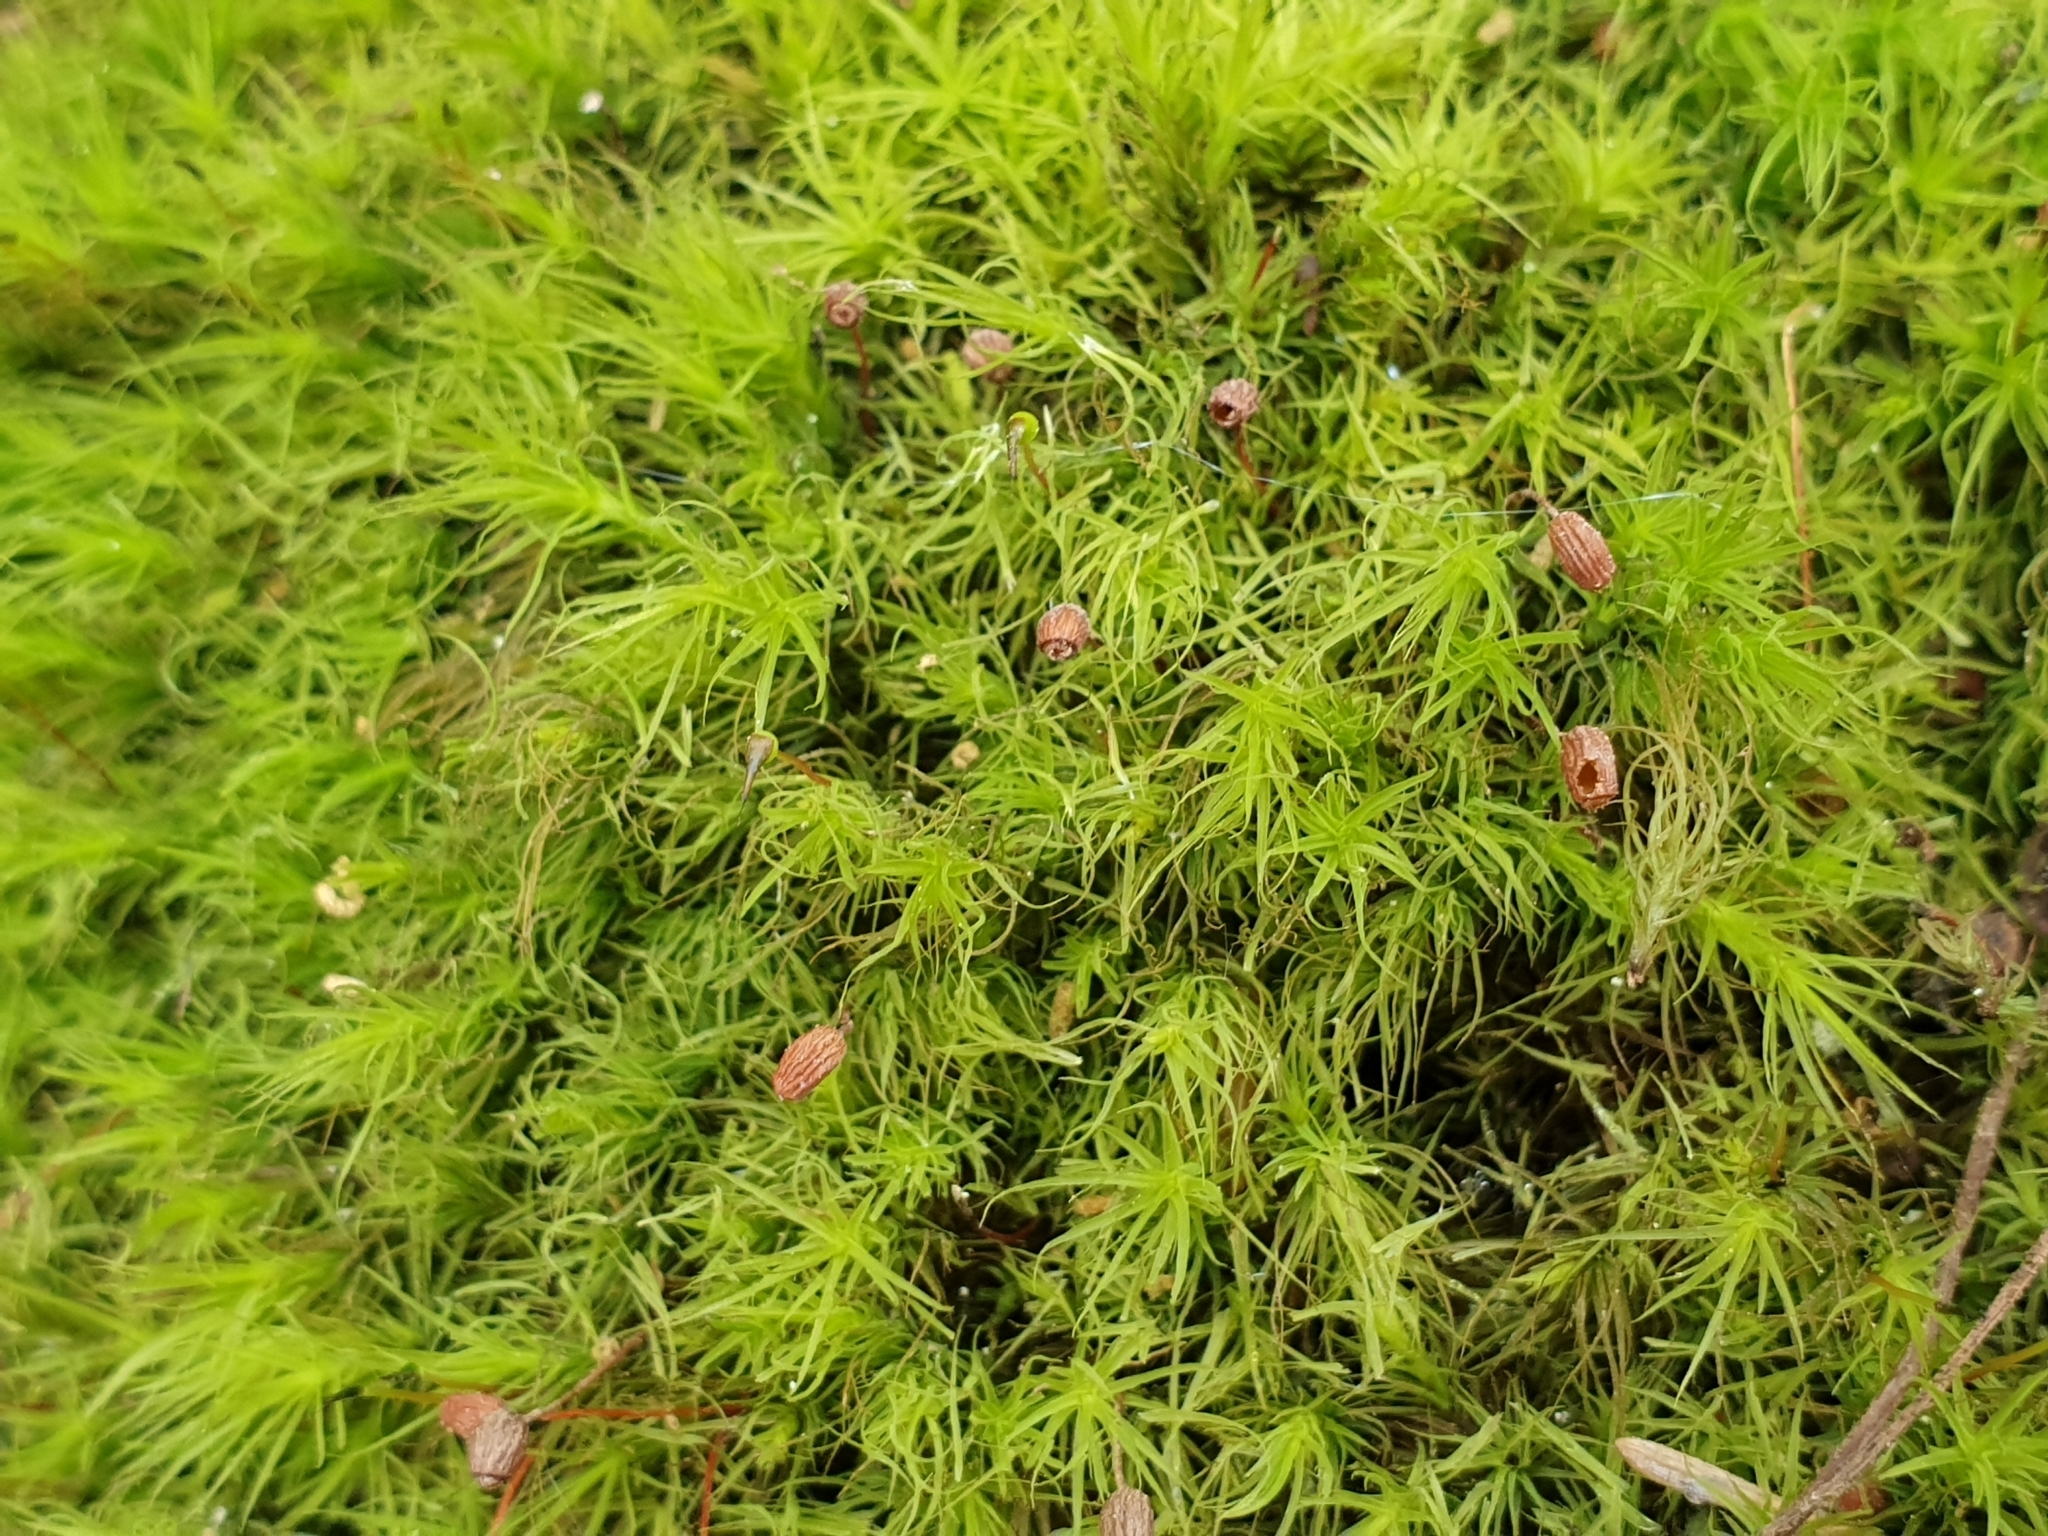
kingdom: Plantae
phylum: Bryophyta
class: Bryopsida
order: Bartramiales
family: Bartramiaceae
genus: Bartramia
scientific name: Bartramia ithyphylla
